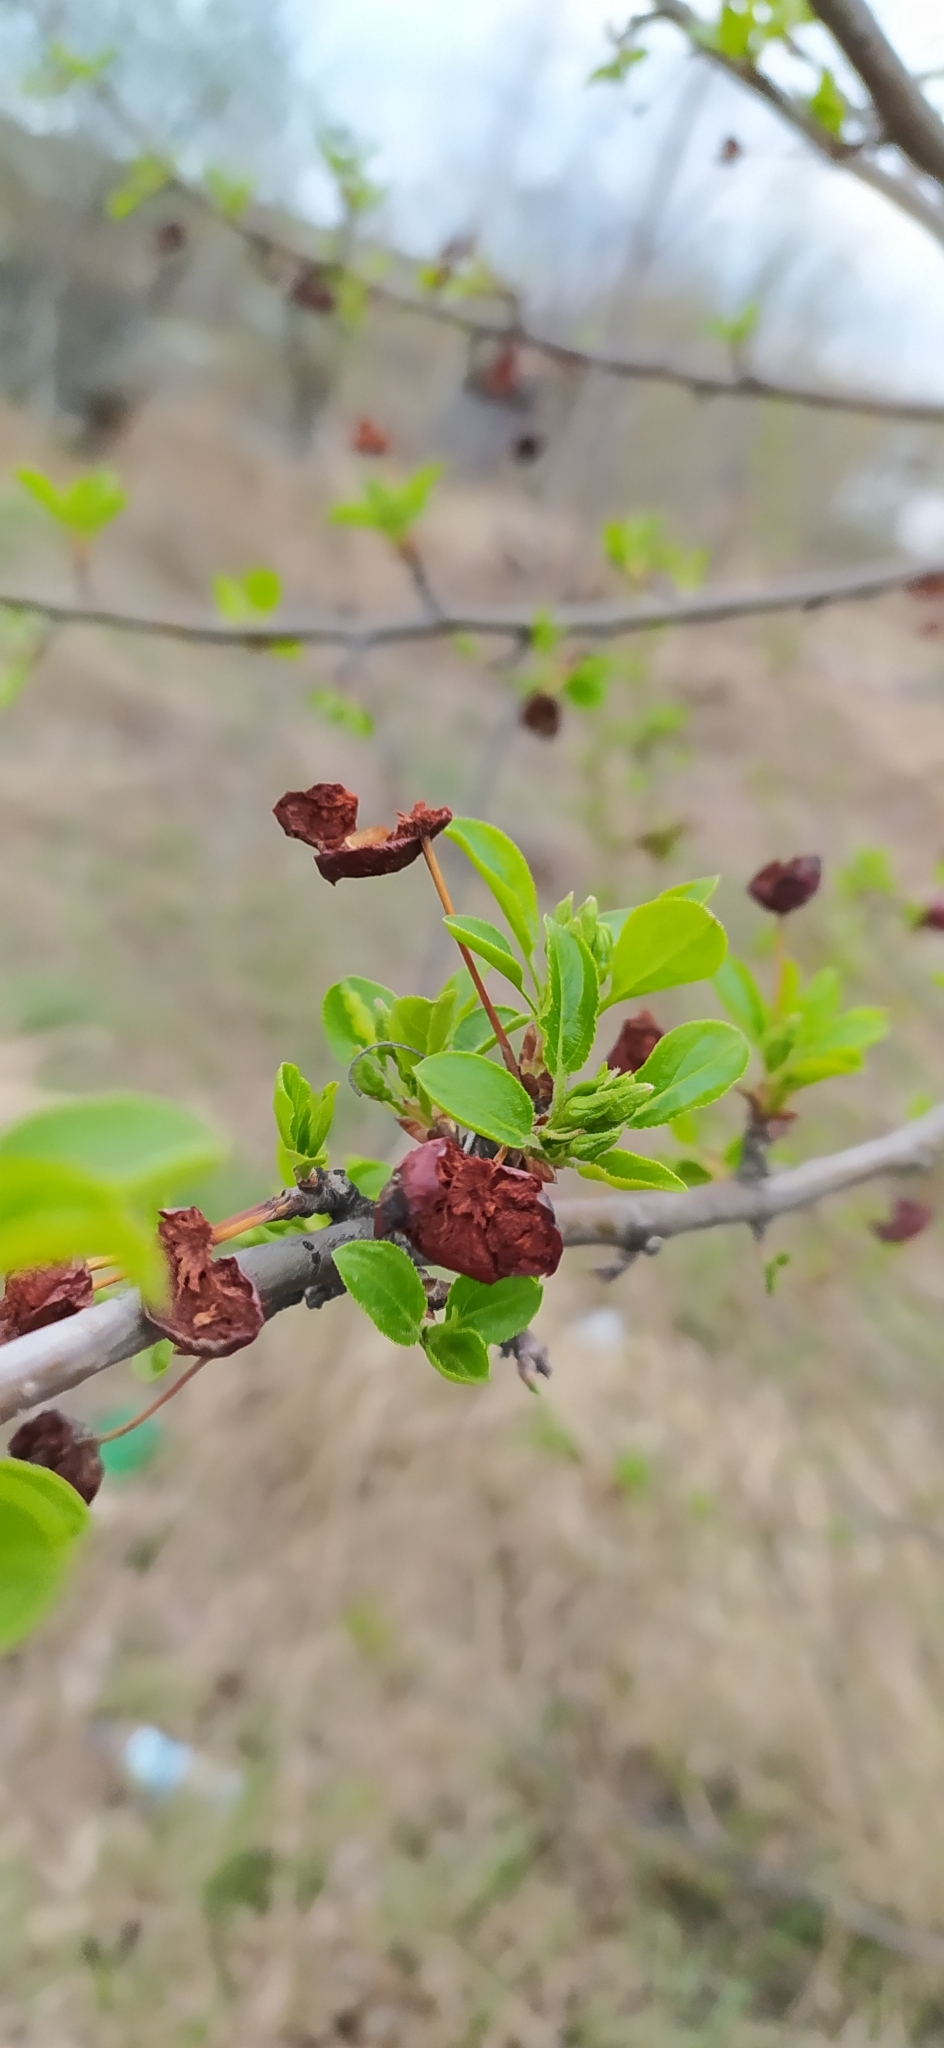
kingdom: Plantae
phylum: Tracheophyta
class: Magnoliopsida
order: Rosales
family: Rosaceae
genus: Malus
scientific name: Malus baccata
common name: Siberian crab
